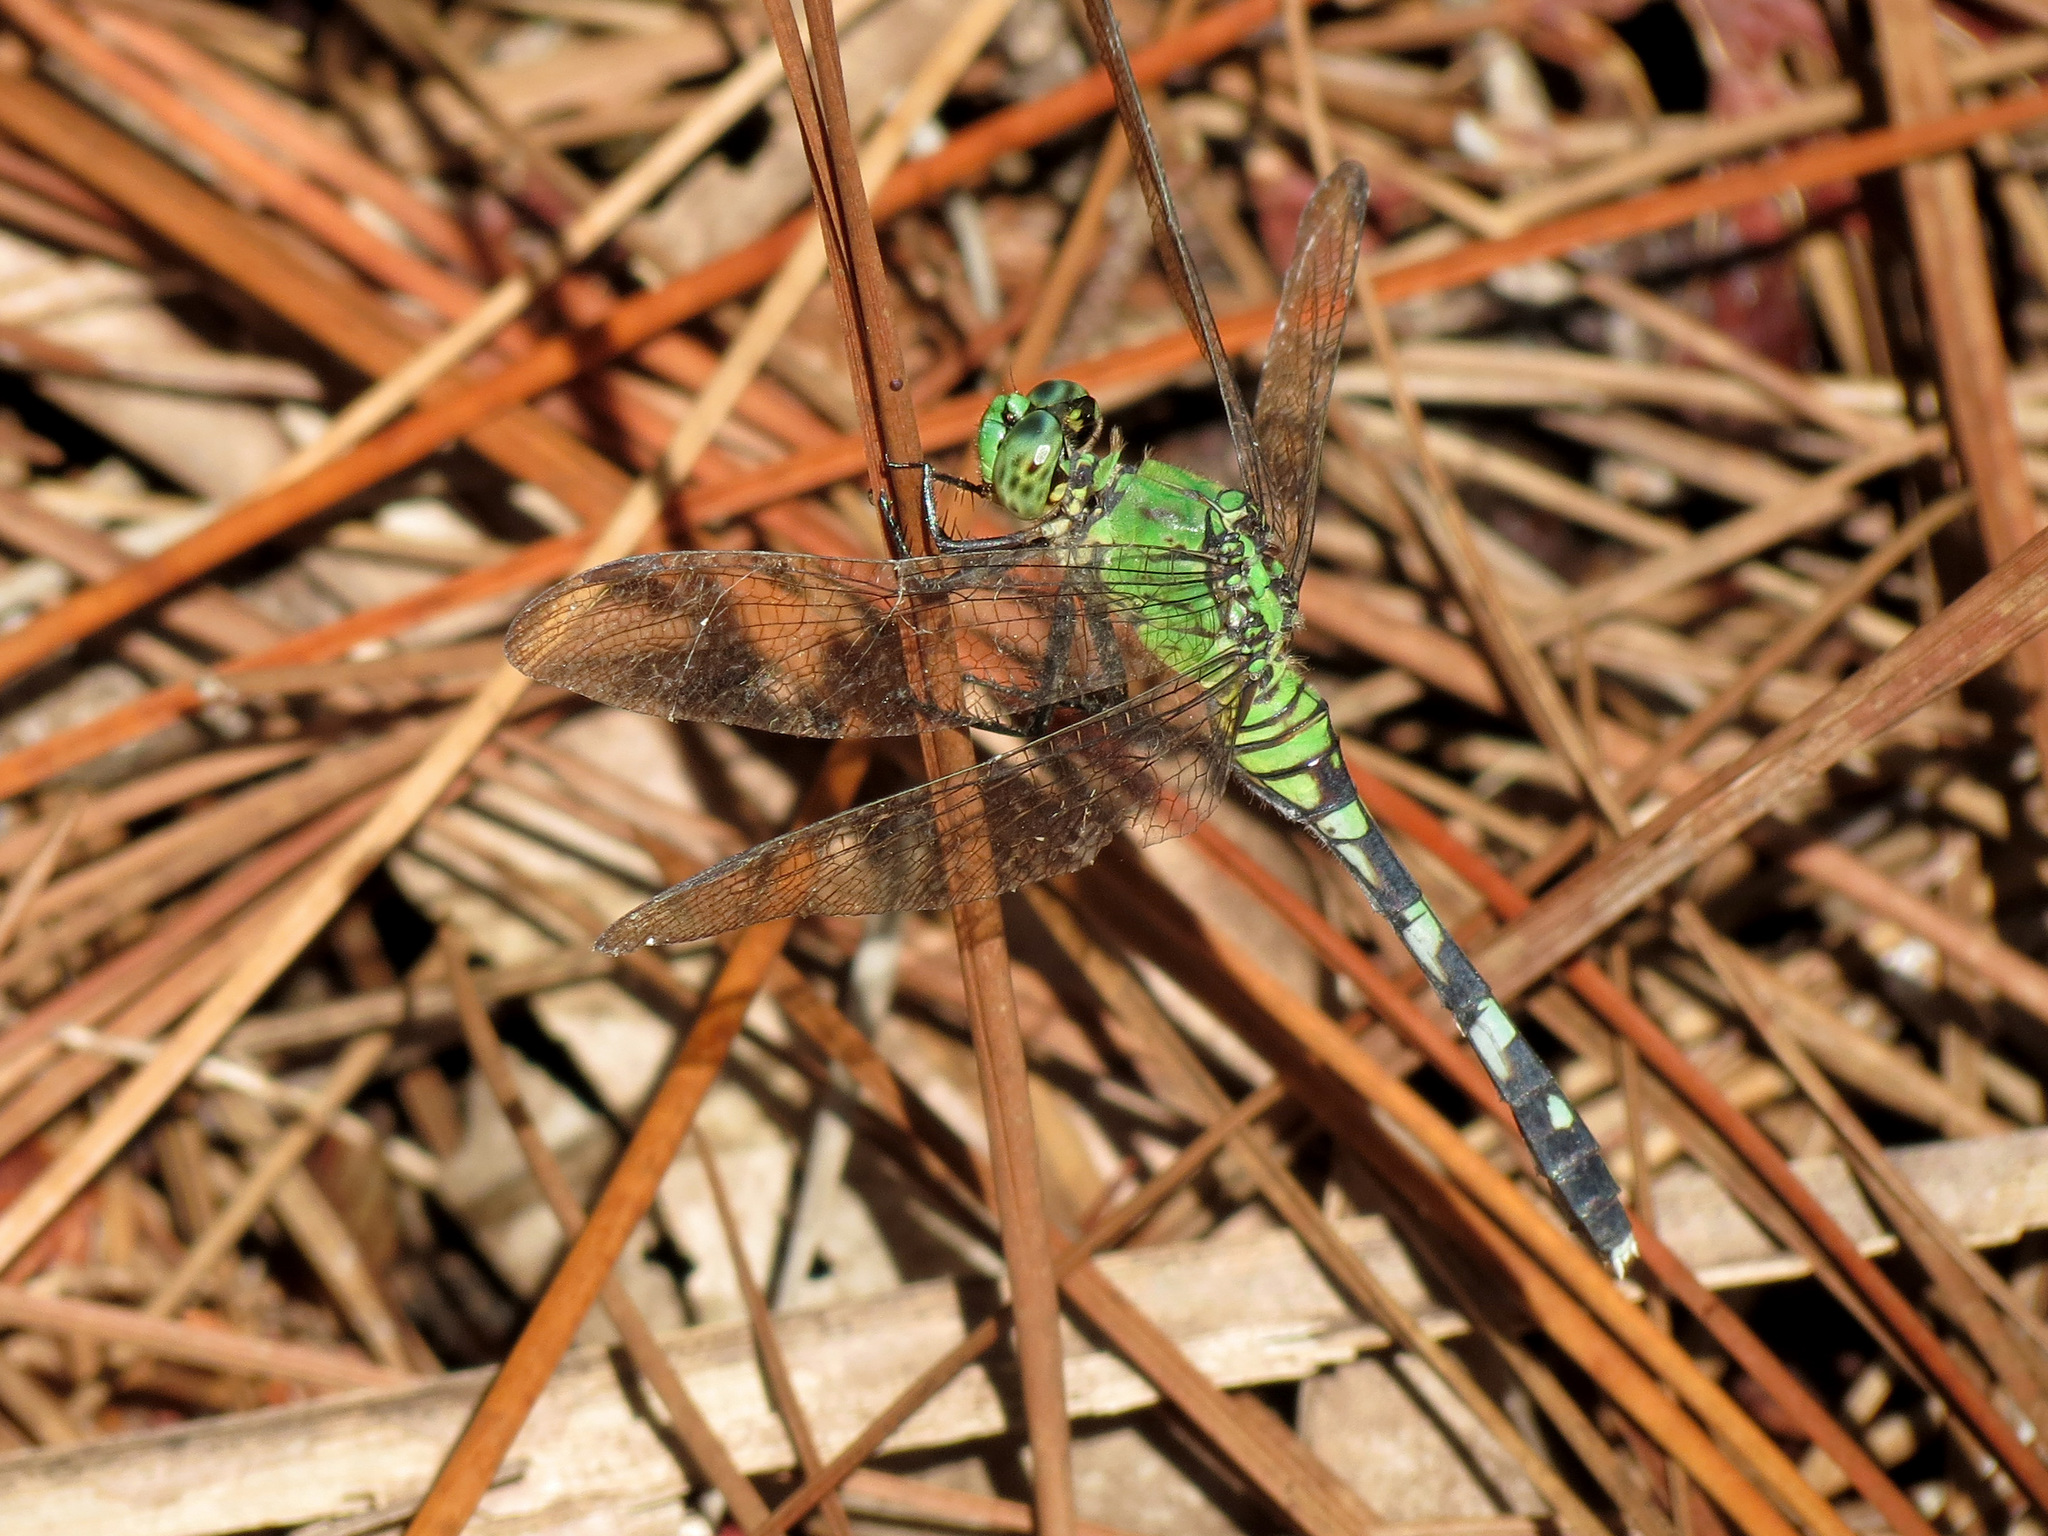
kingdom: Animalia
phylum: Arthropoda
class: Insecta
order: Odonata
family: Libellulidae
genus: Erythemis
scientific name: Erythemis simplicicollis
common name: Eastern pondhawk
